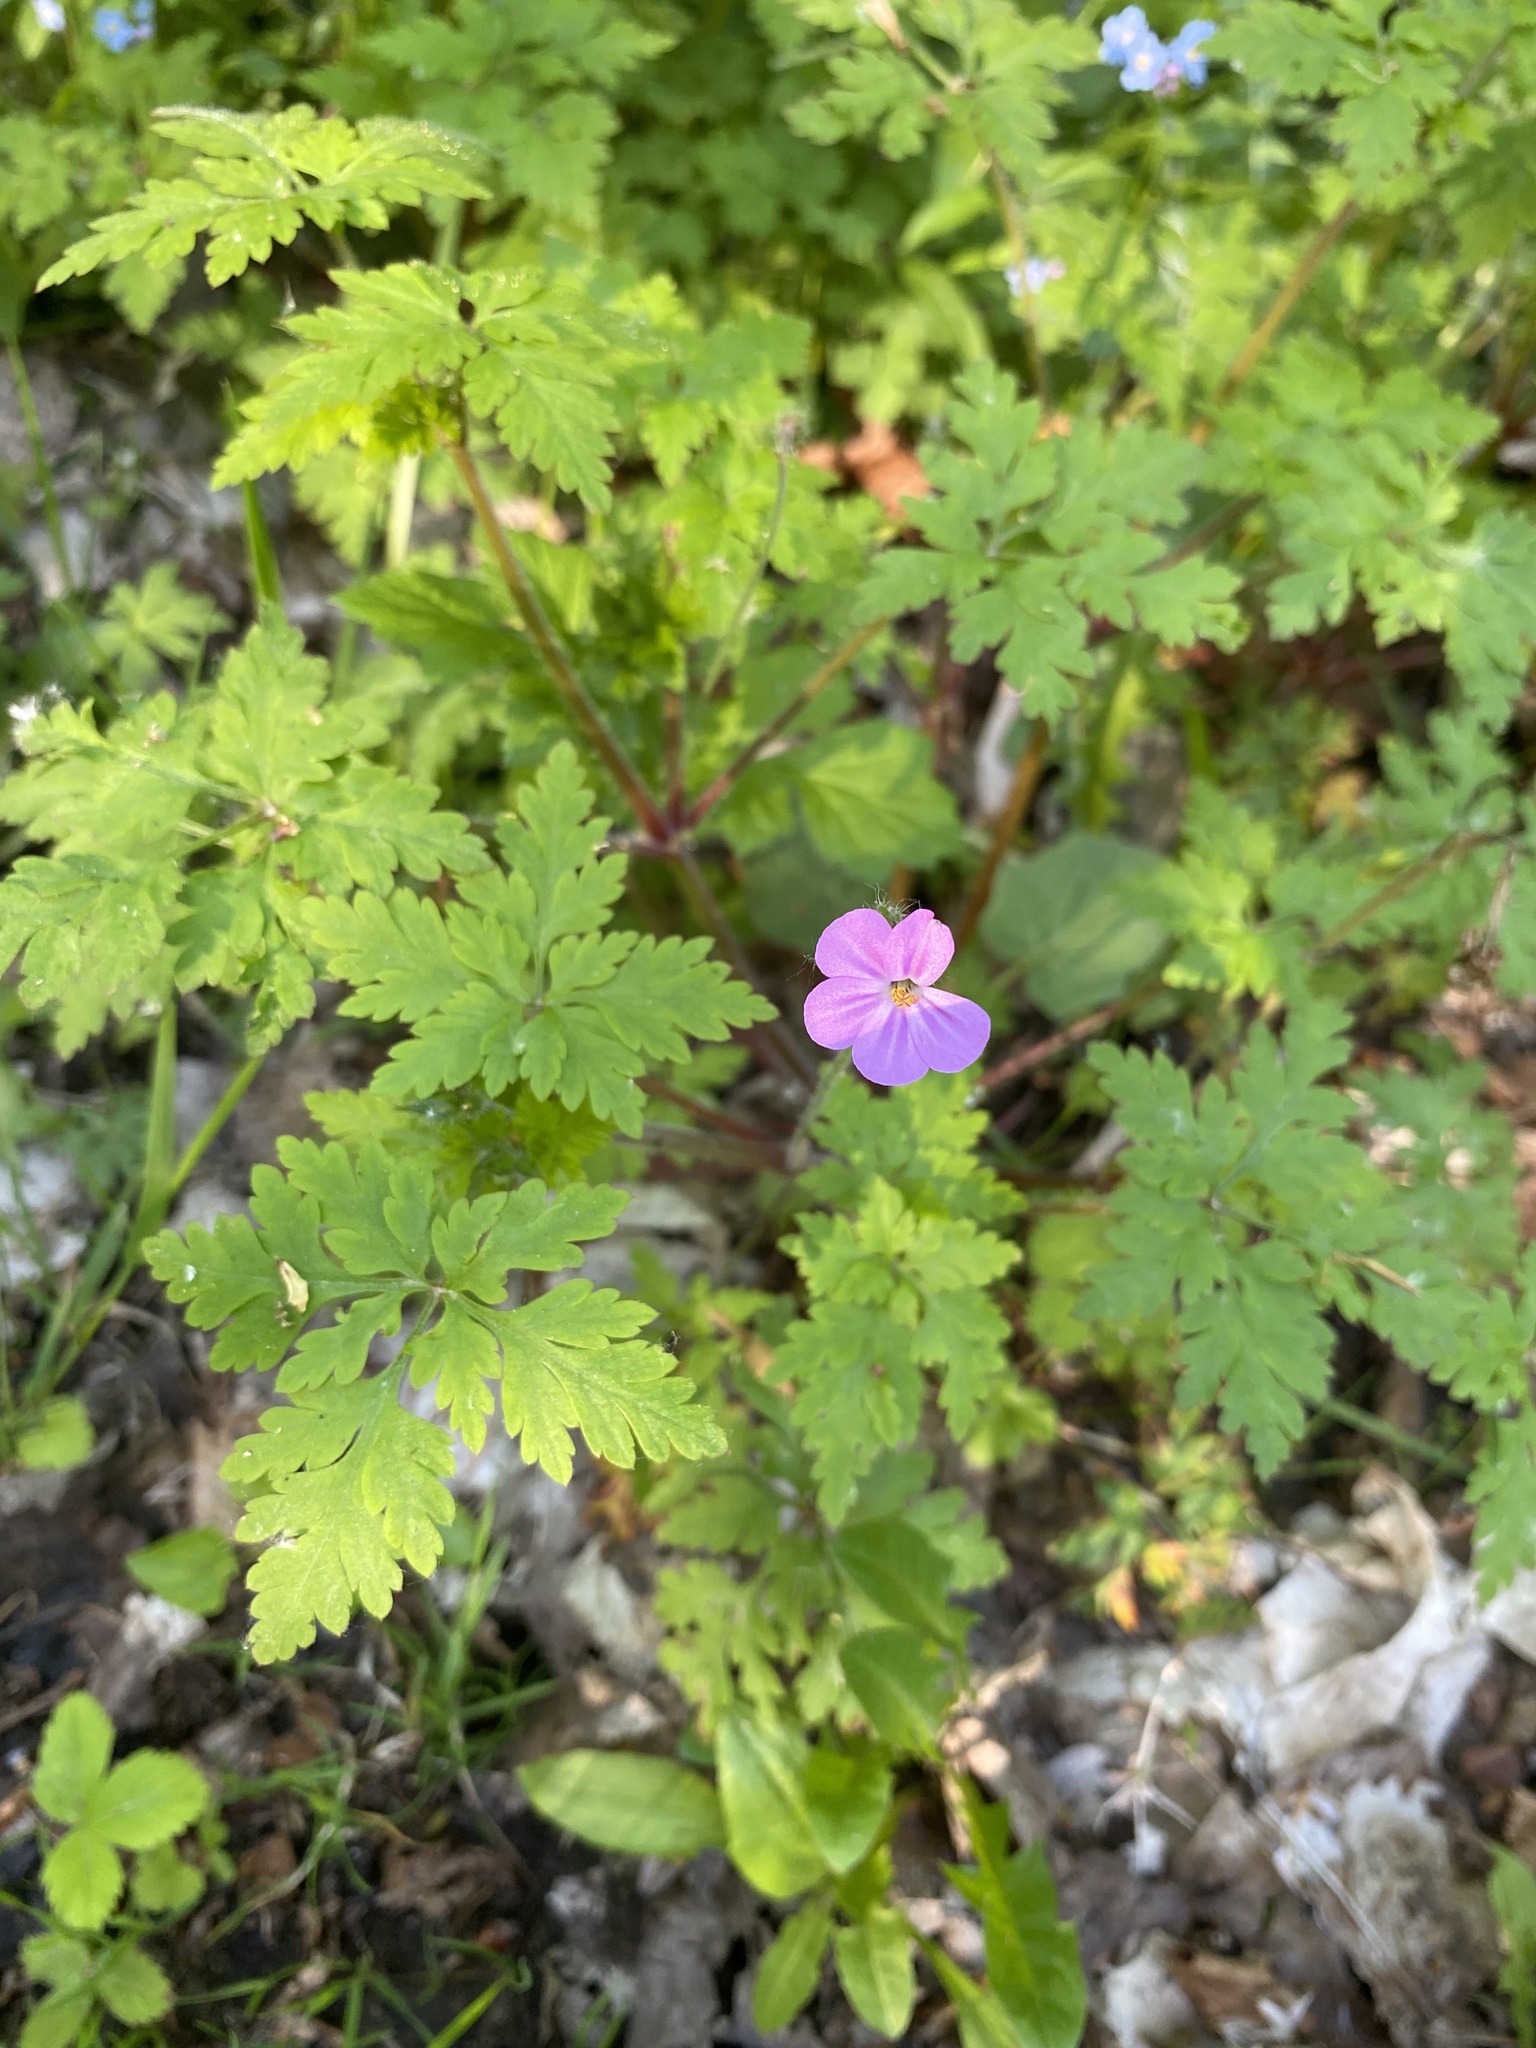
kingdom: Plantae
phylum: Tracheophyta
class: Magnoliopsida
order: Geraniales
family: Geraniaceae
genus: Geranium
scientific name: Geranium robertianum
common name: Herb-robert
